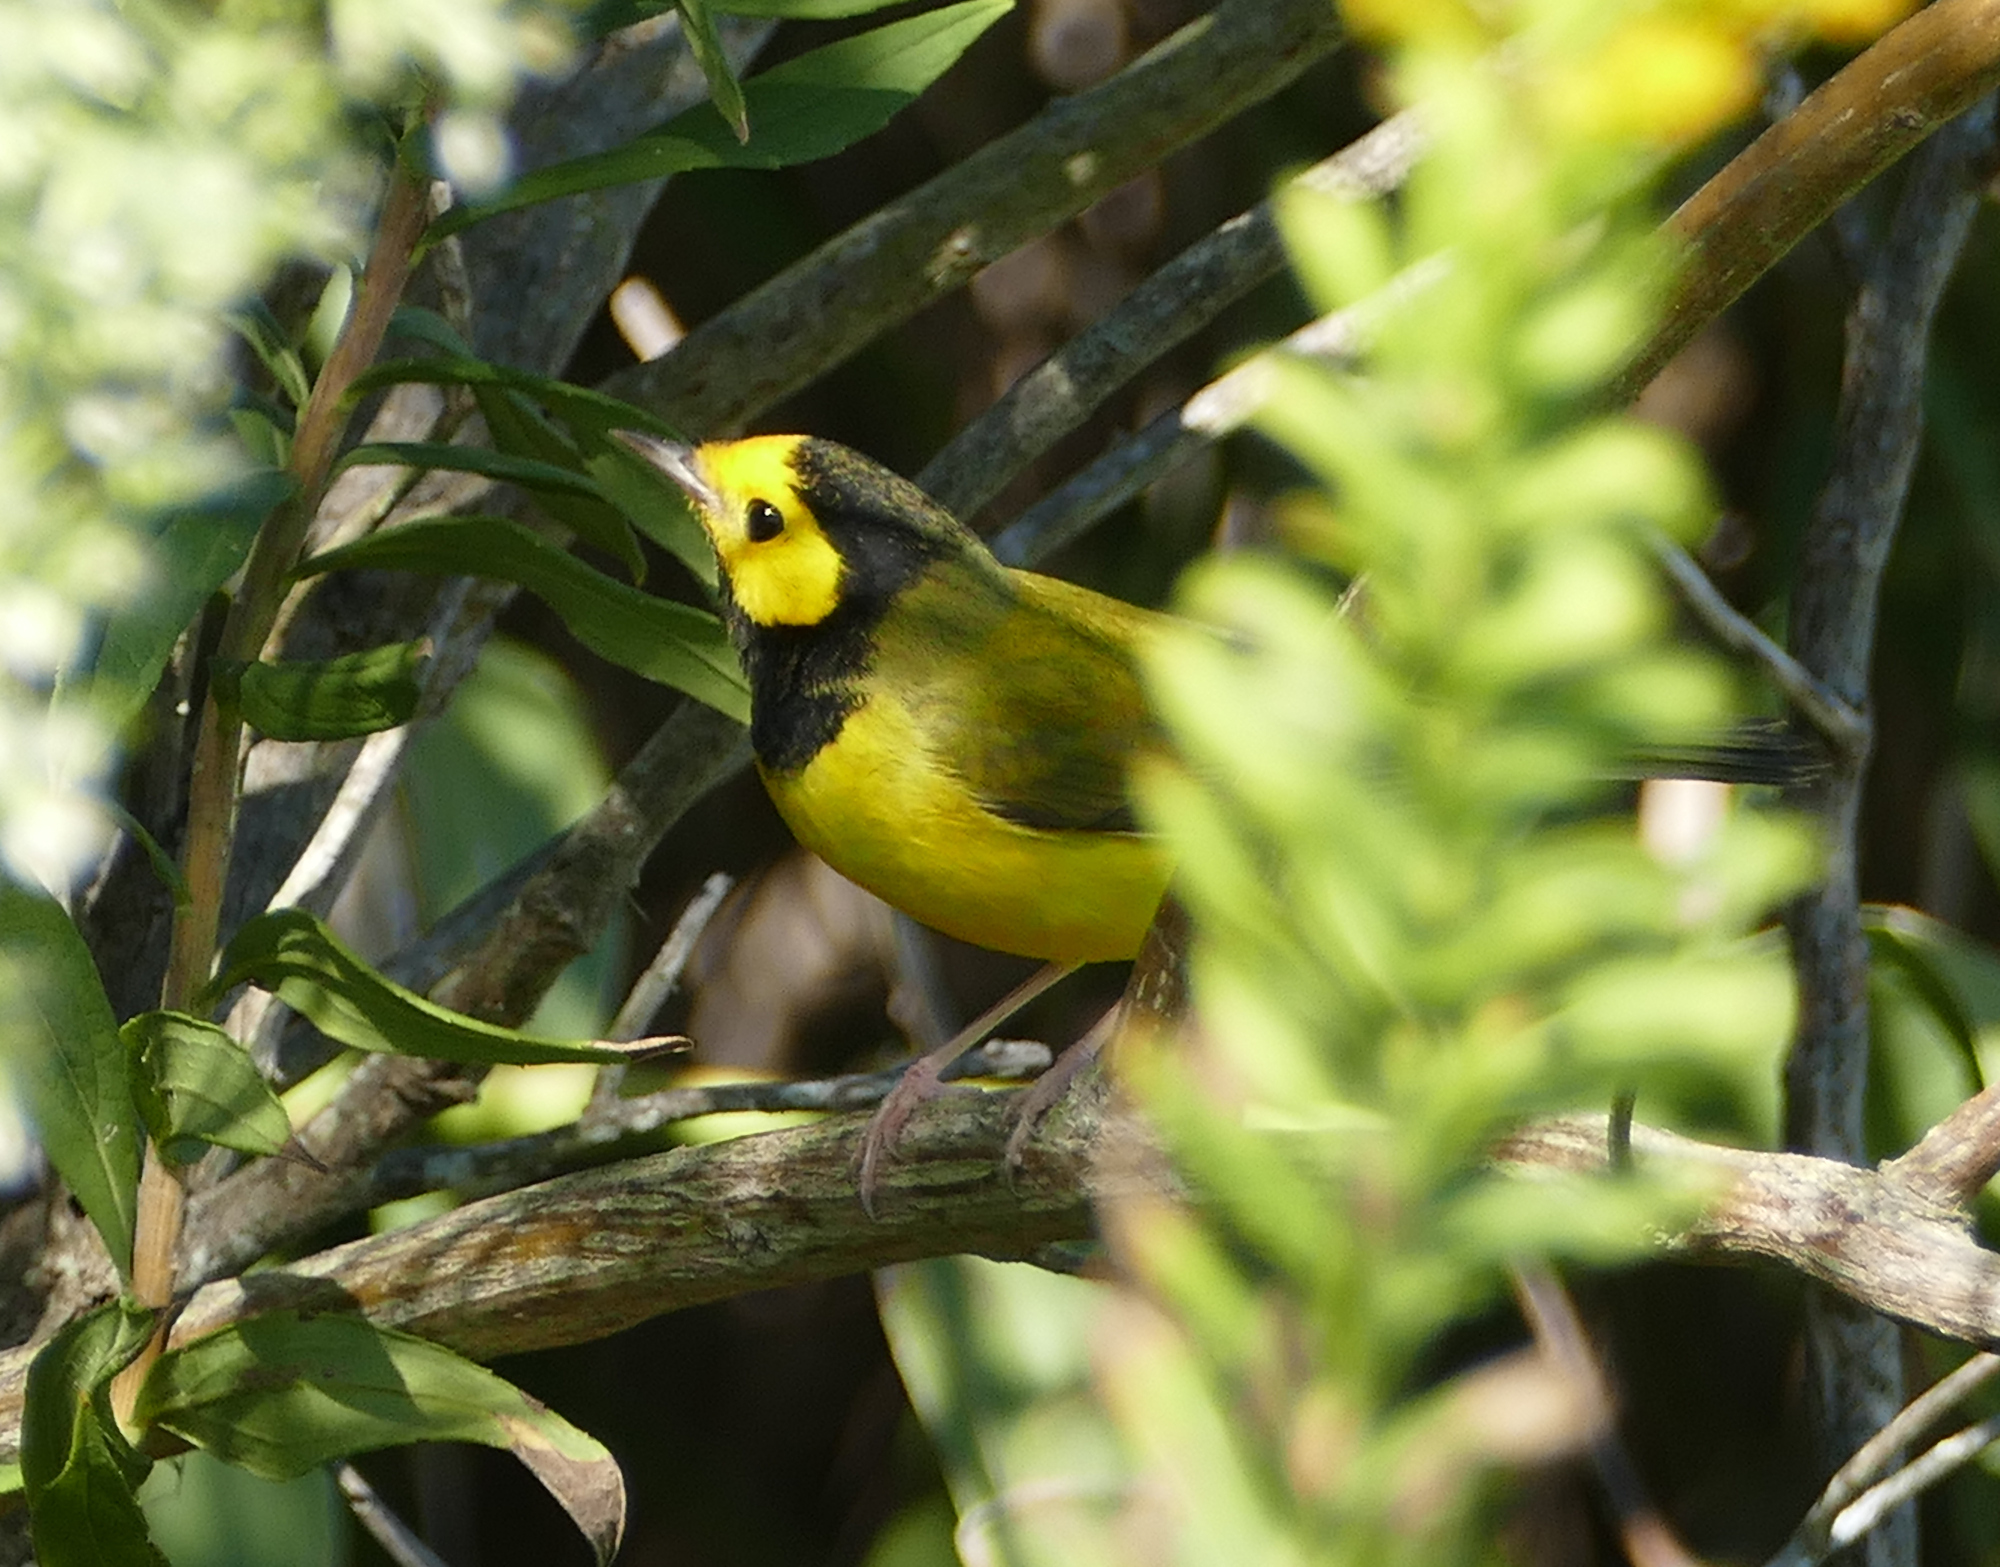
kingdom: Animalia
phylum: Chordata
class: Aves
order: Passeriformes
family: Parulidae
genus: Setophaga
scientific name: Setophaga citrina
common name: Hooded warbler
